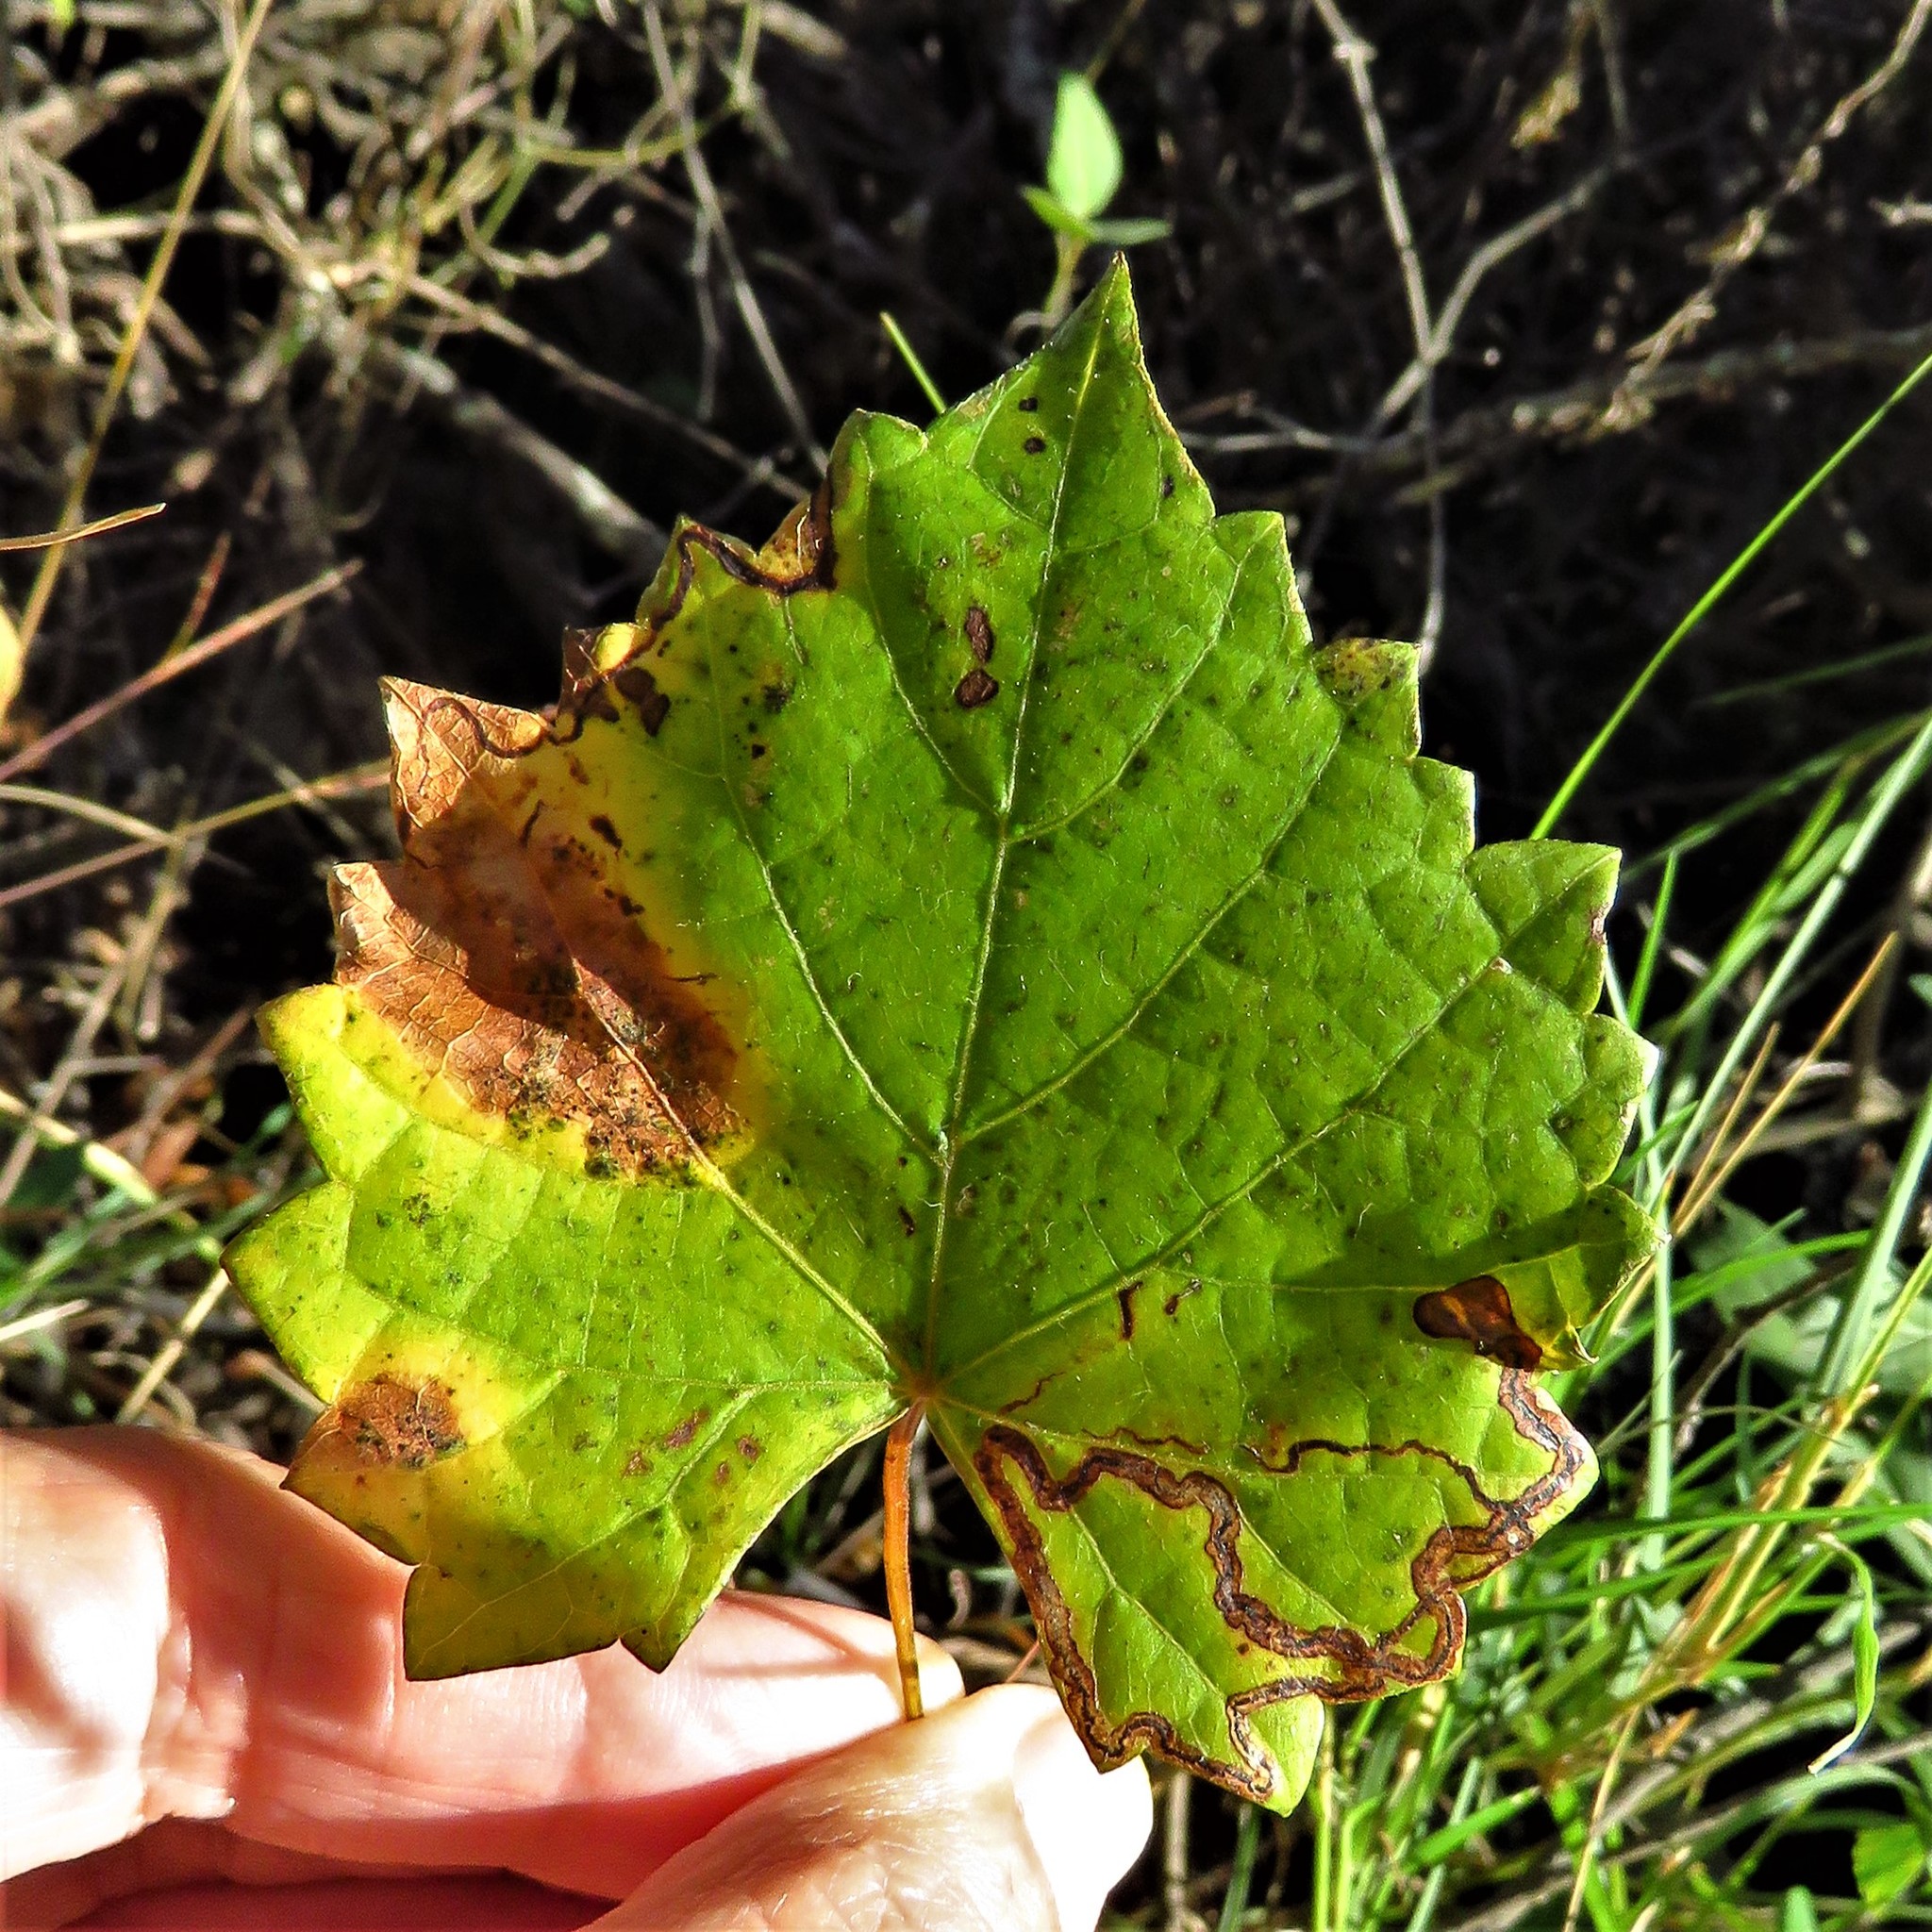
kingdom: Animalia
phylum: Arthropoda
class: Insecta
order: Lepidoptera
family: Gracillariidae
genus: Phyllocnistis
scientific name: Phyllocnistis vitifoliella
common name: Grape leaf-miner moth
